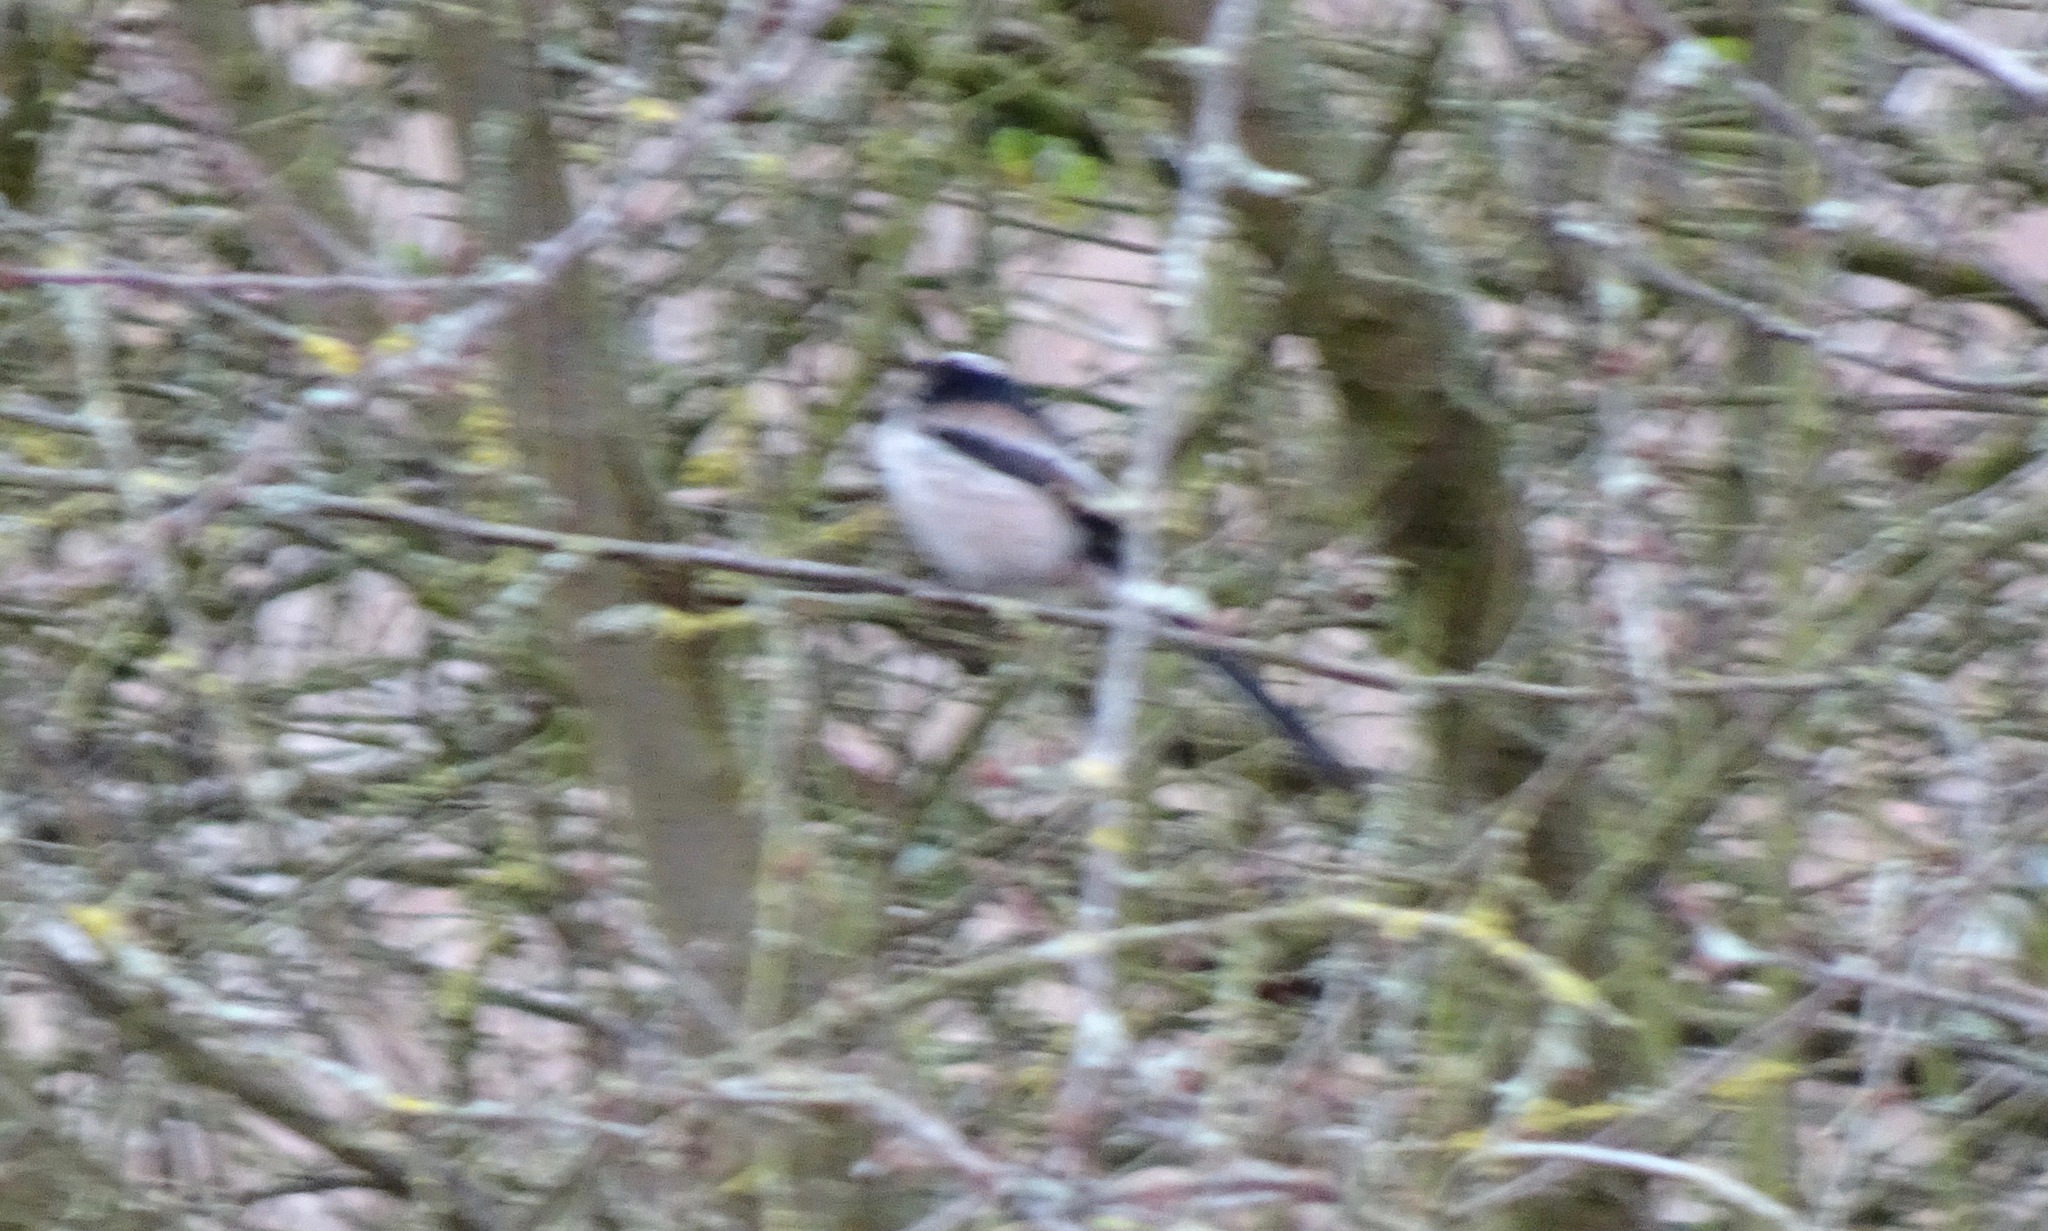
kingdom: Animalia
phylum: Chordata
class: Aves
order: Passeriformes
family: Aegithalidae
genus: Aegithalos
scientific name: Aegithalos caudatus
